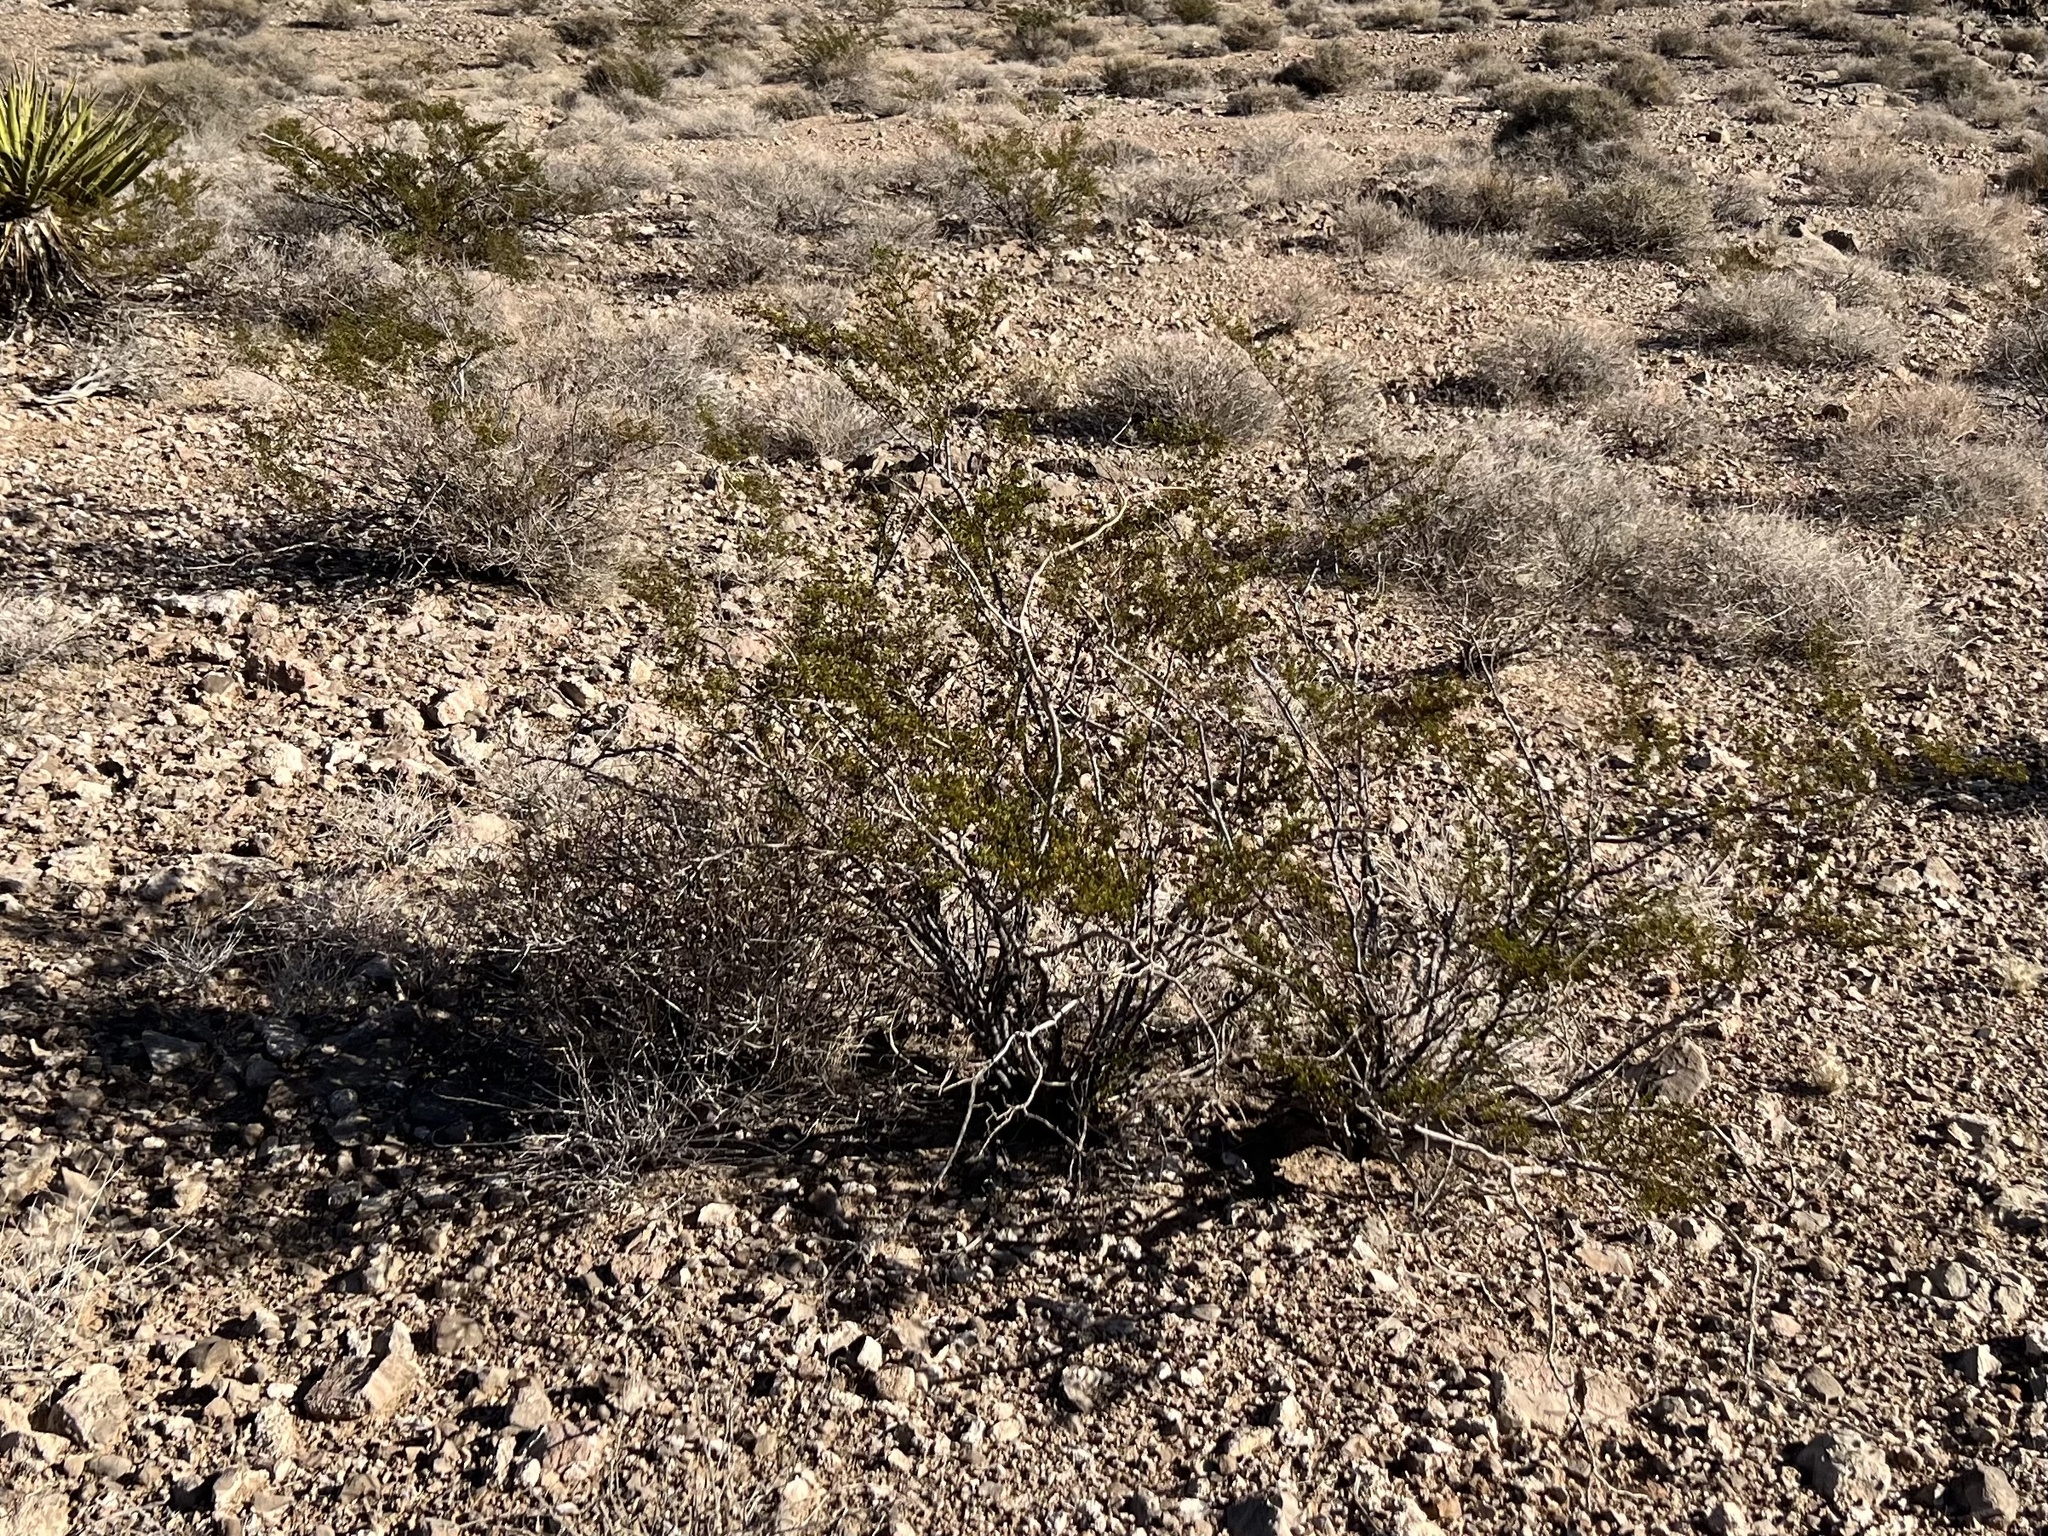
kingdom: Plantae
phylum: Tracheophyta
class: Magnoliopsida
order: Zygophyllales
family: Zygophyllaceae
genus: Larrea
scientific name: Larrea tridentata
